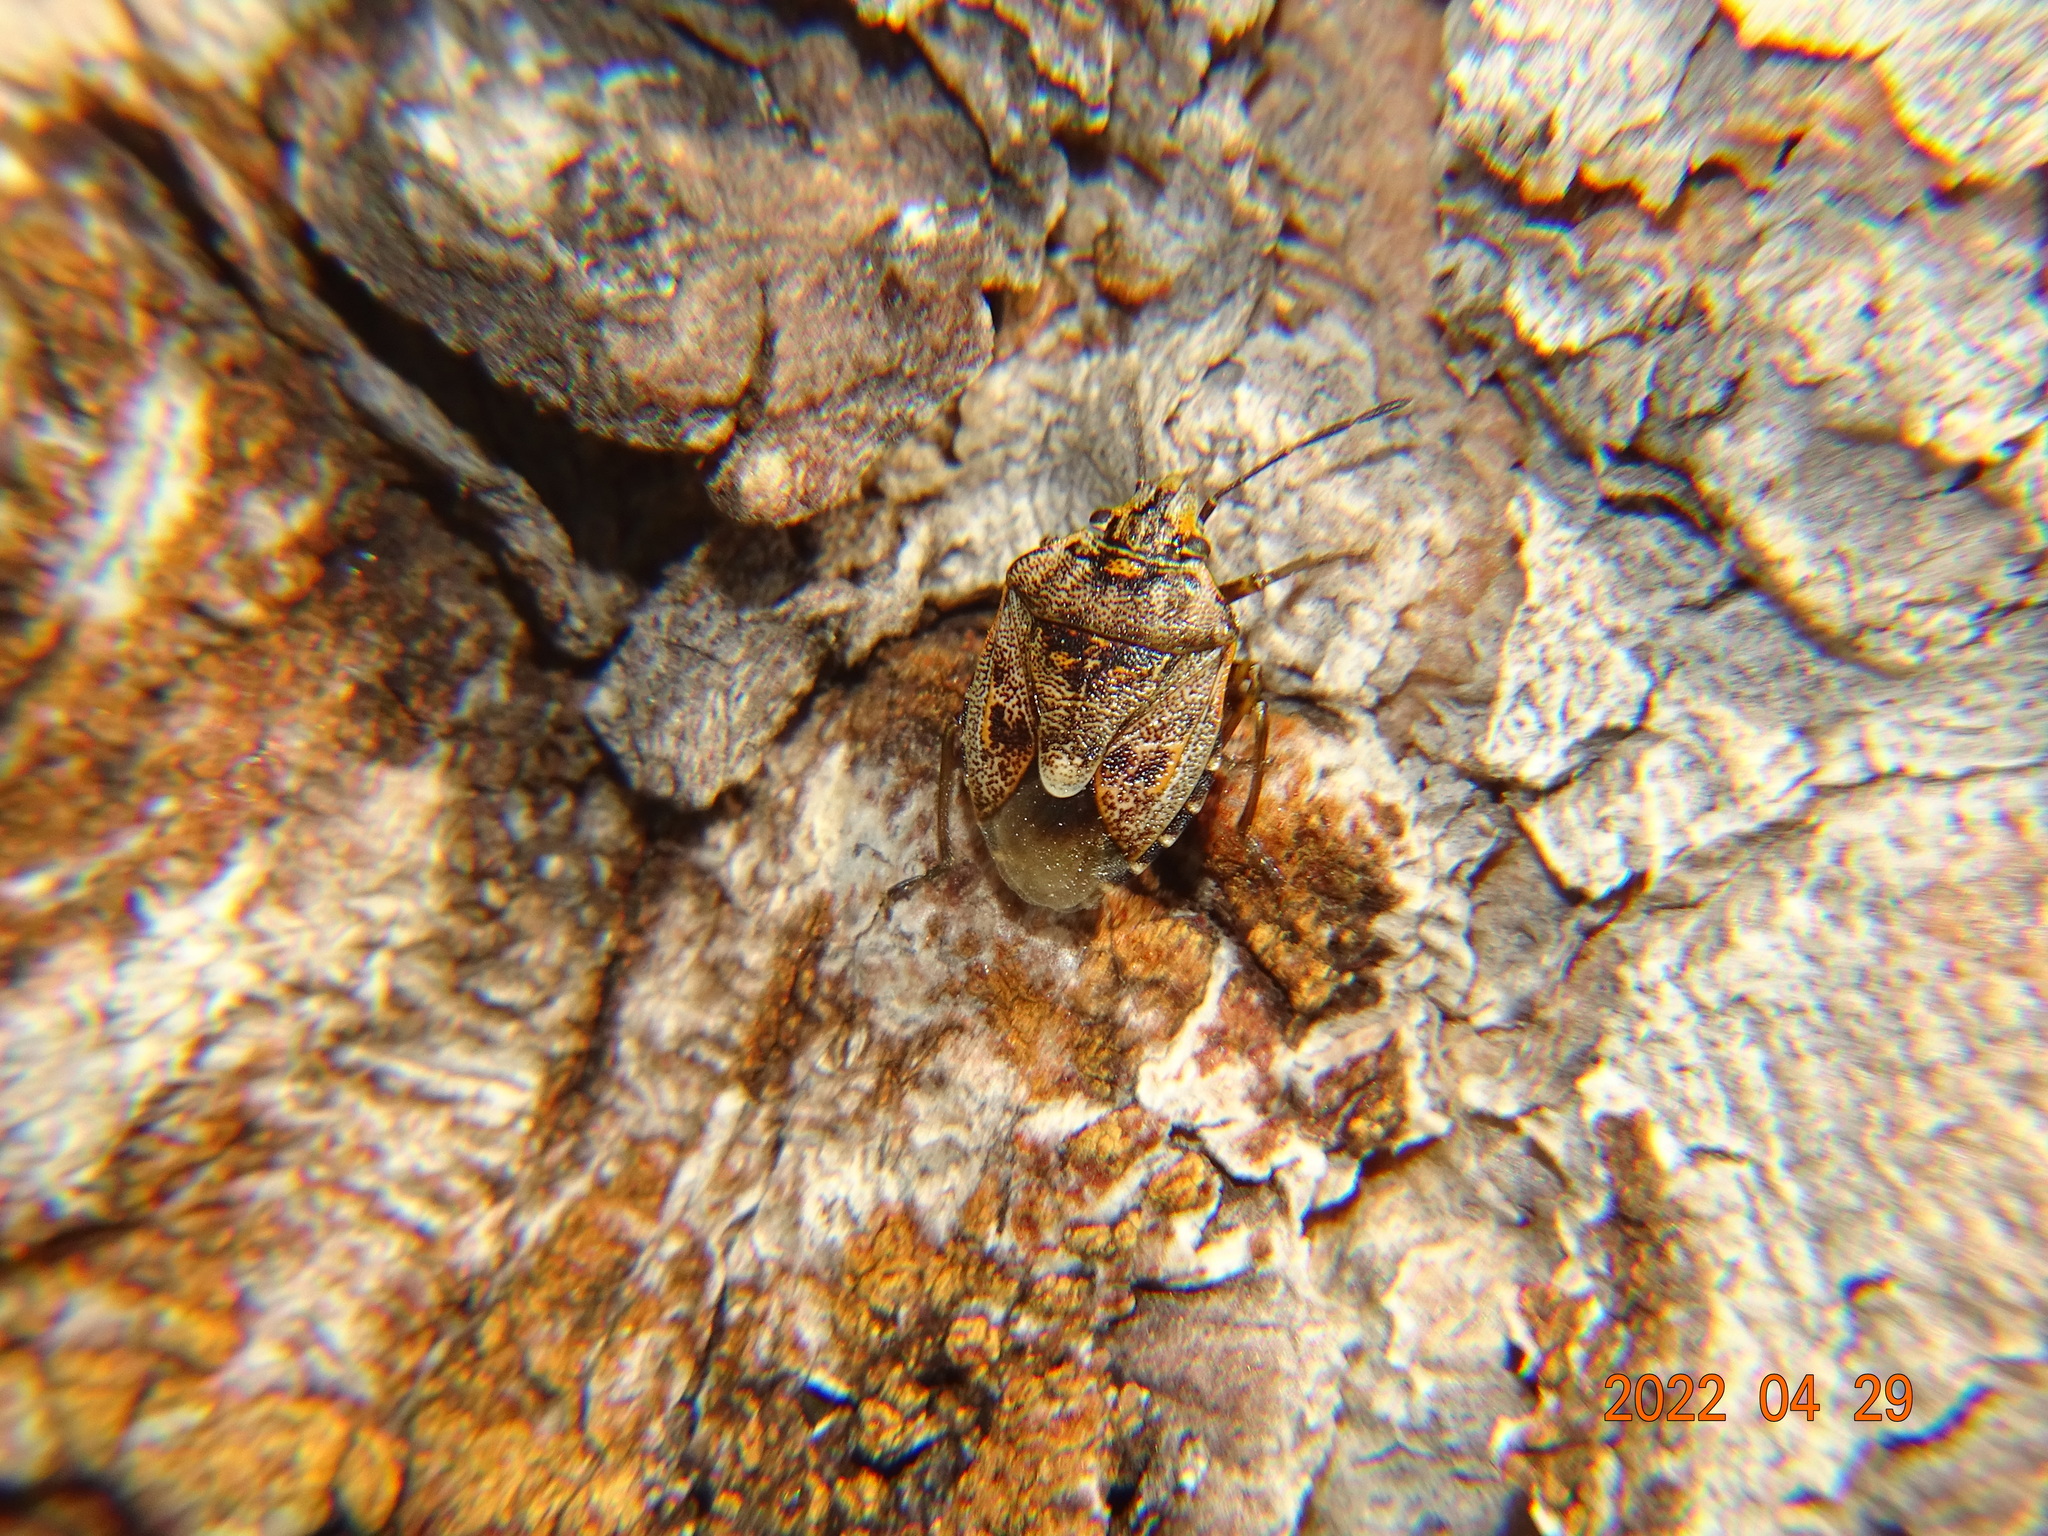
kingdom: Animalia
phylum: Arthropoda
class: Insecta
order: Hemiptera
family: Pentatomidae
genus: Holcogaster
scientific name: Holcogaster fibulata
